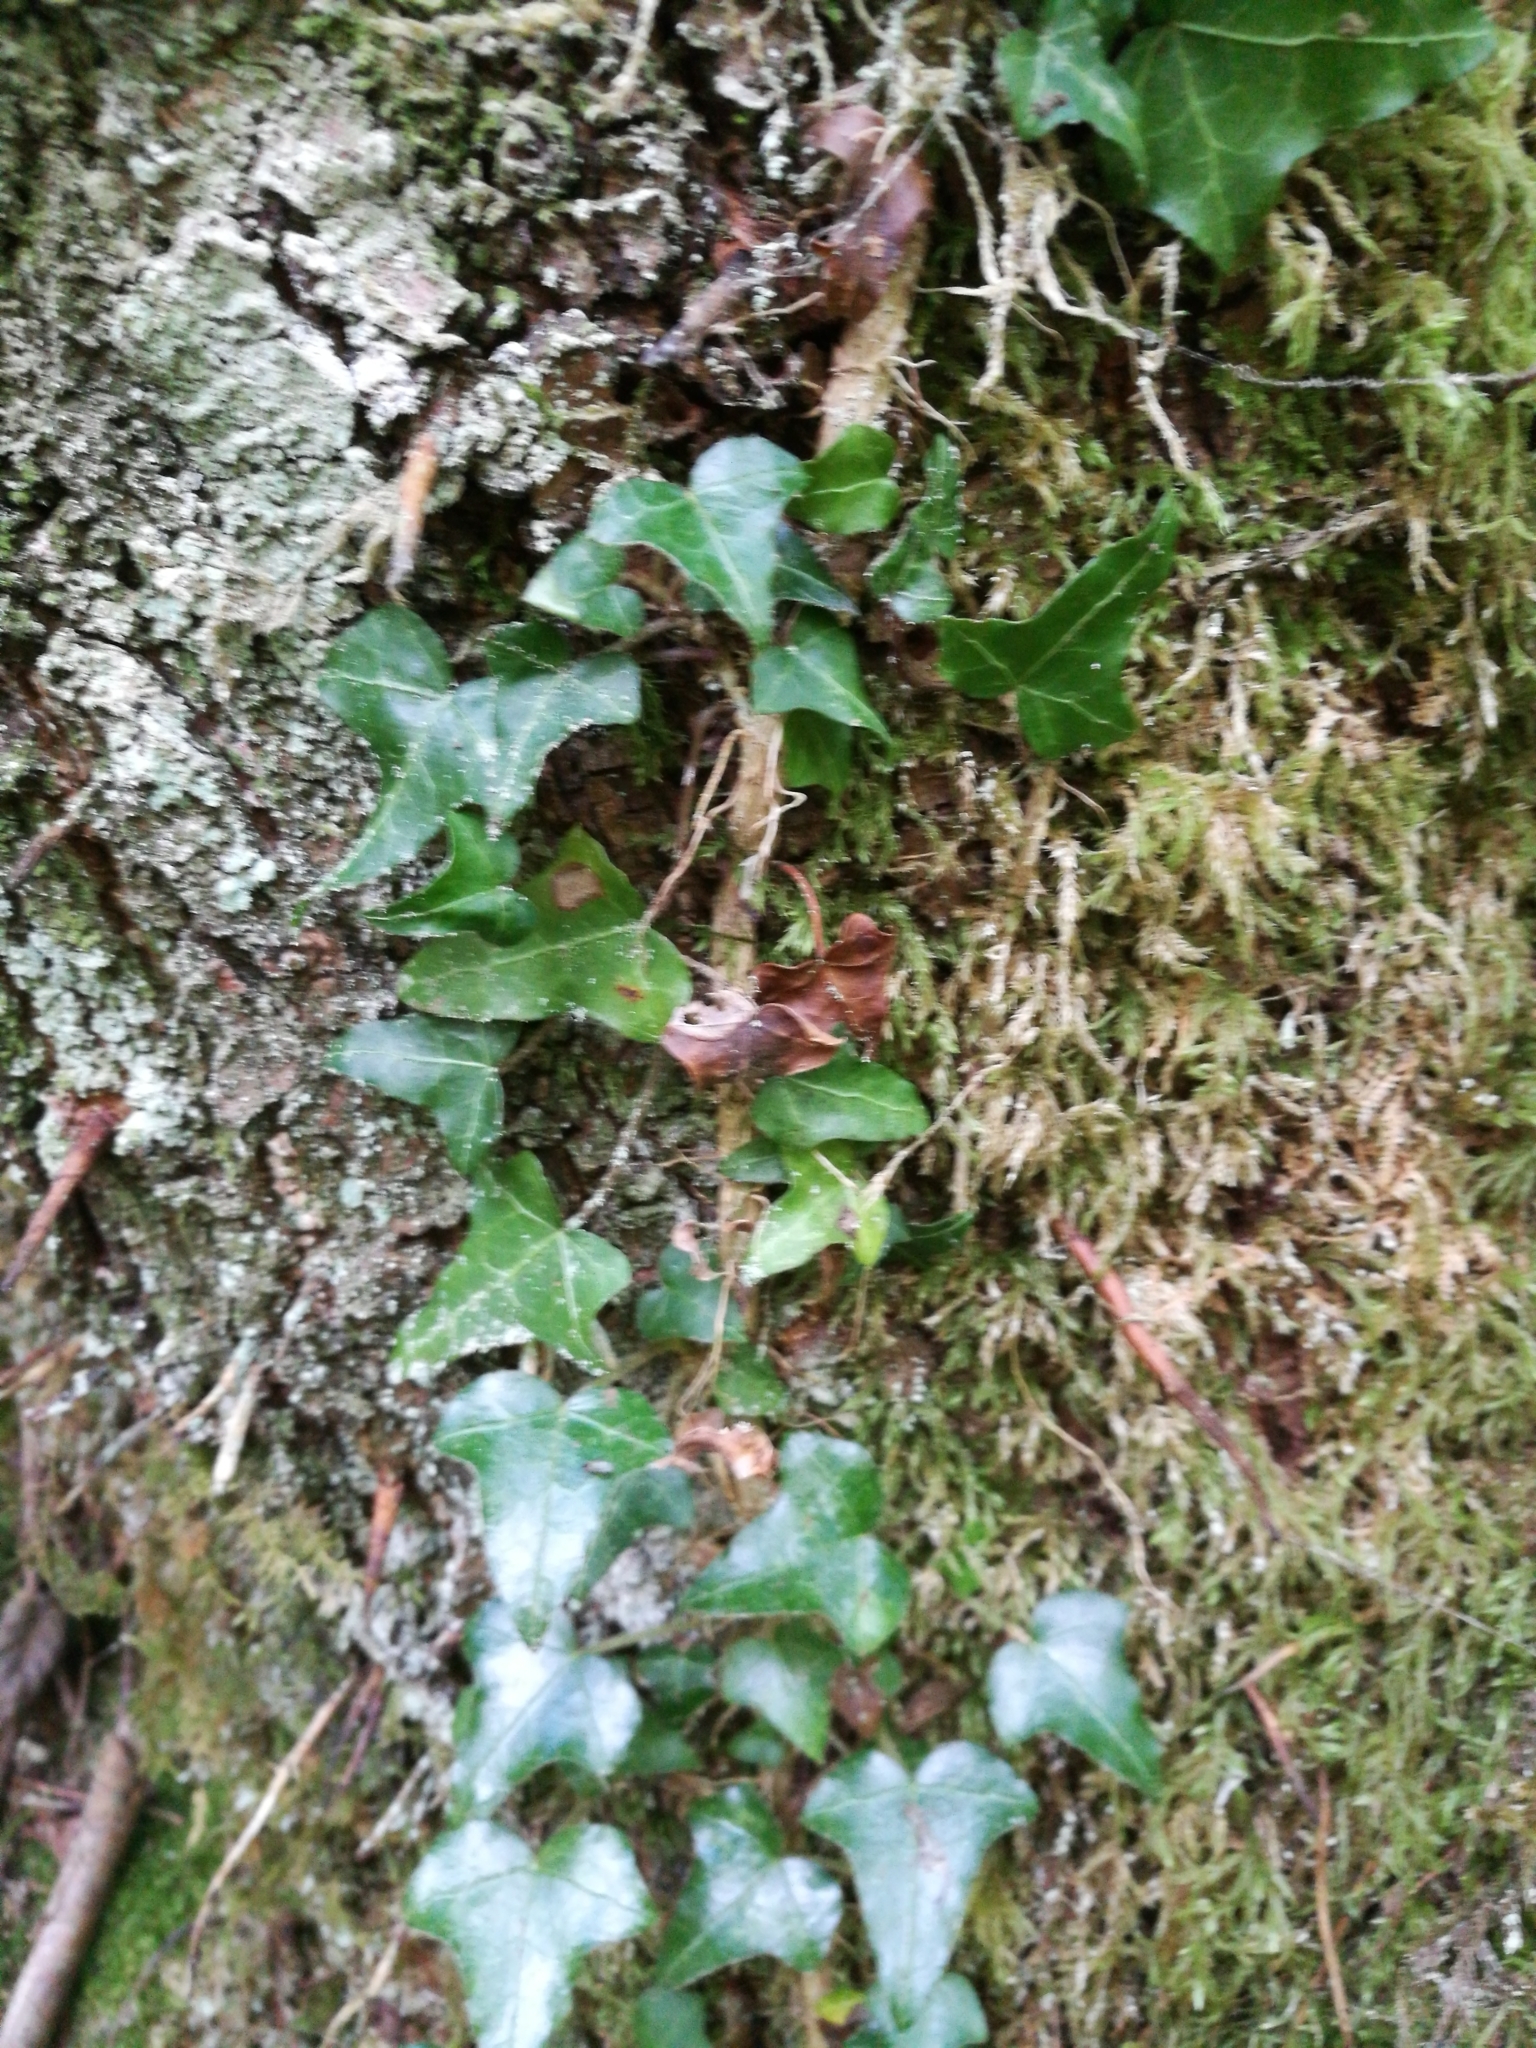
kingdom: Plantae
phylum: Tracheophyta
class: Magnoliopsida
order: Apiales
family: Araliaceae
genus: Hedera
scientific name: Hedera helix
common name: Ivy
